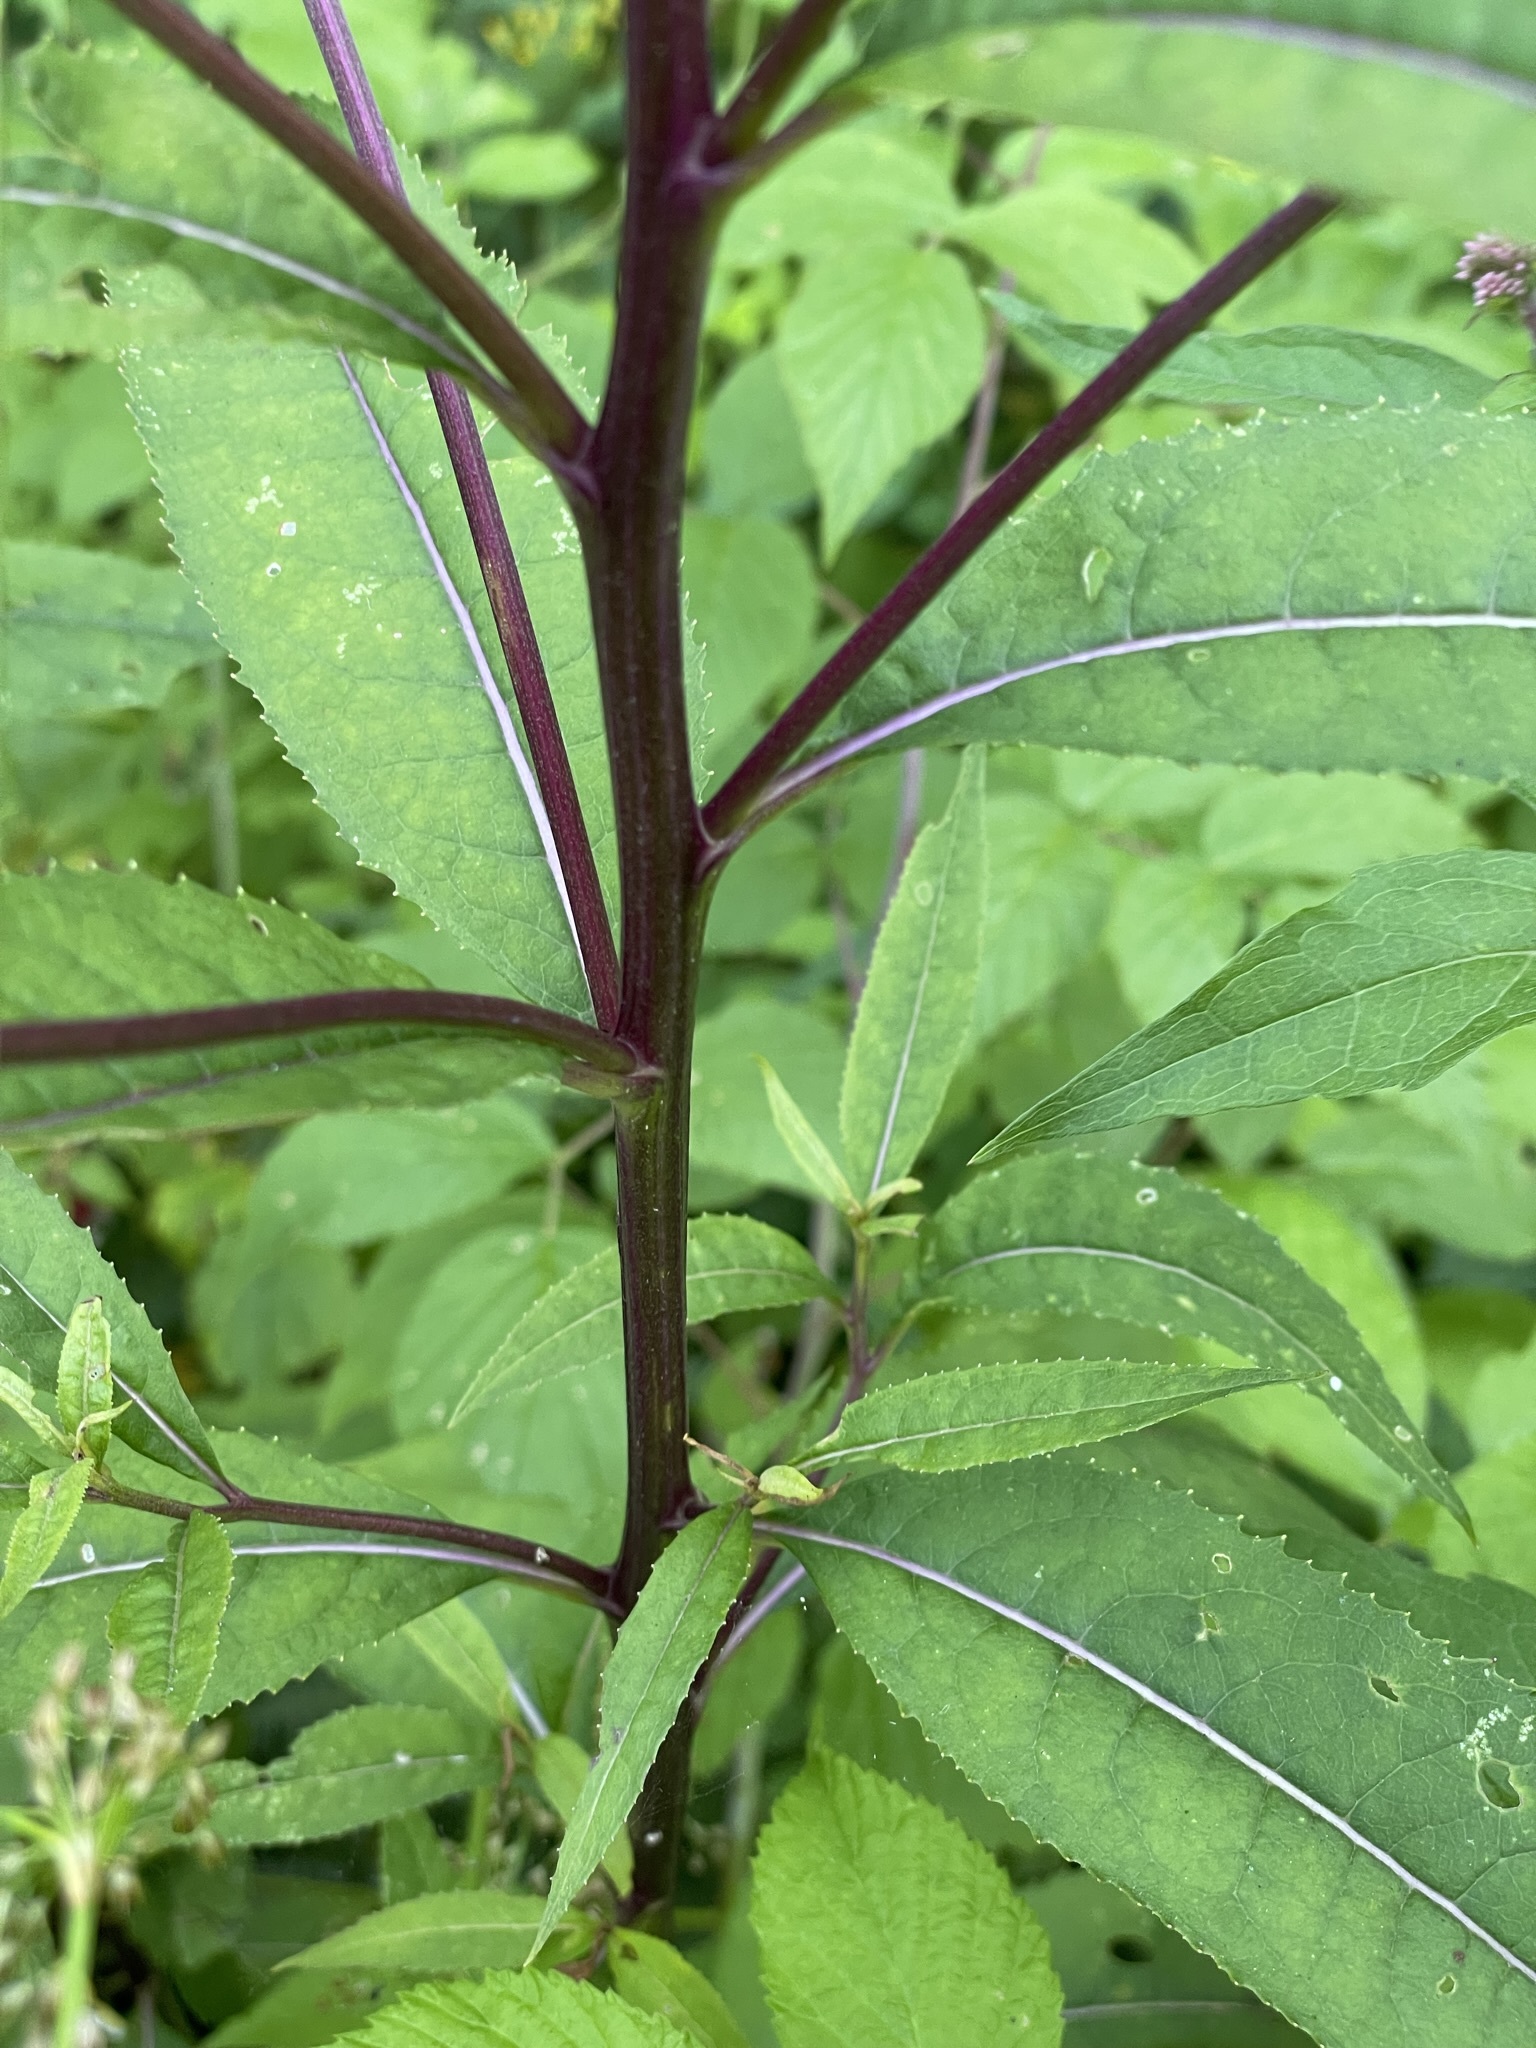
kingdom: Plantae
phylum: Tracheophyta
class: Magnoliopsida
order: Asterales
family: Asteraceae
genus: Senecio
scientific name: Senecio ovatus
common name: Wood ragwort
